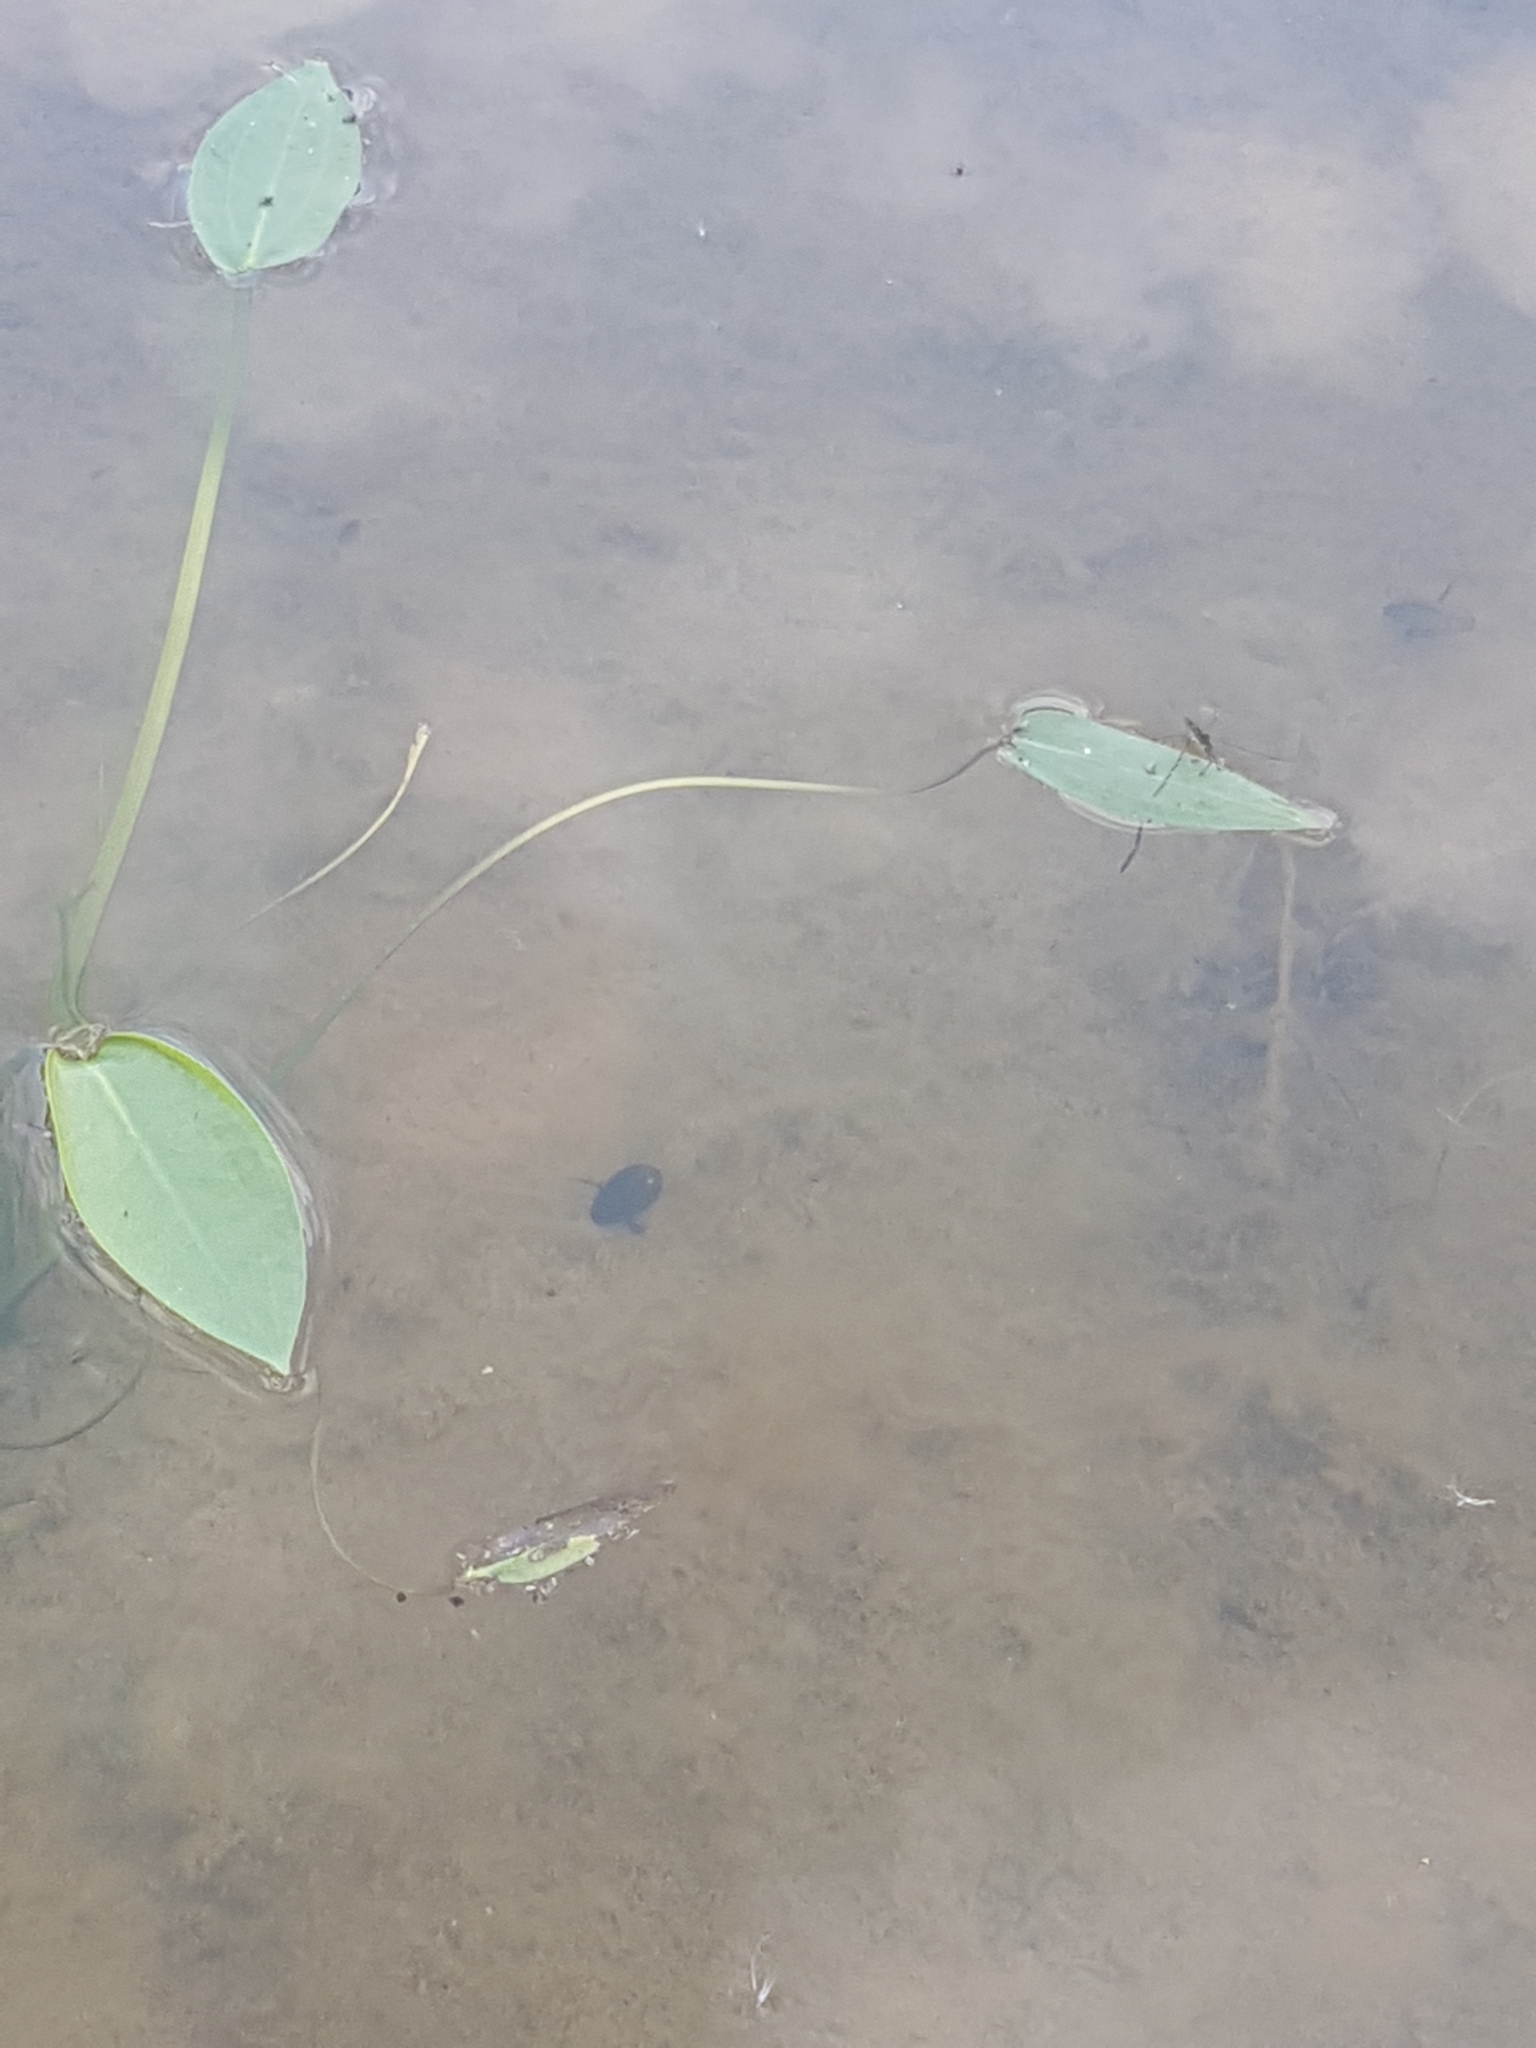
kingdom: Animalia
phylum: Arthropoda
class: Insecta
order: Coleoptera
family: Dytiscidae
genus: Acilius
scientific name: Acilius
